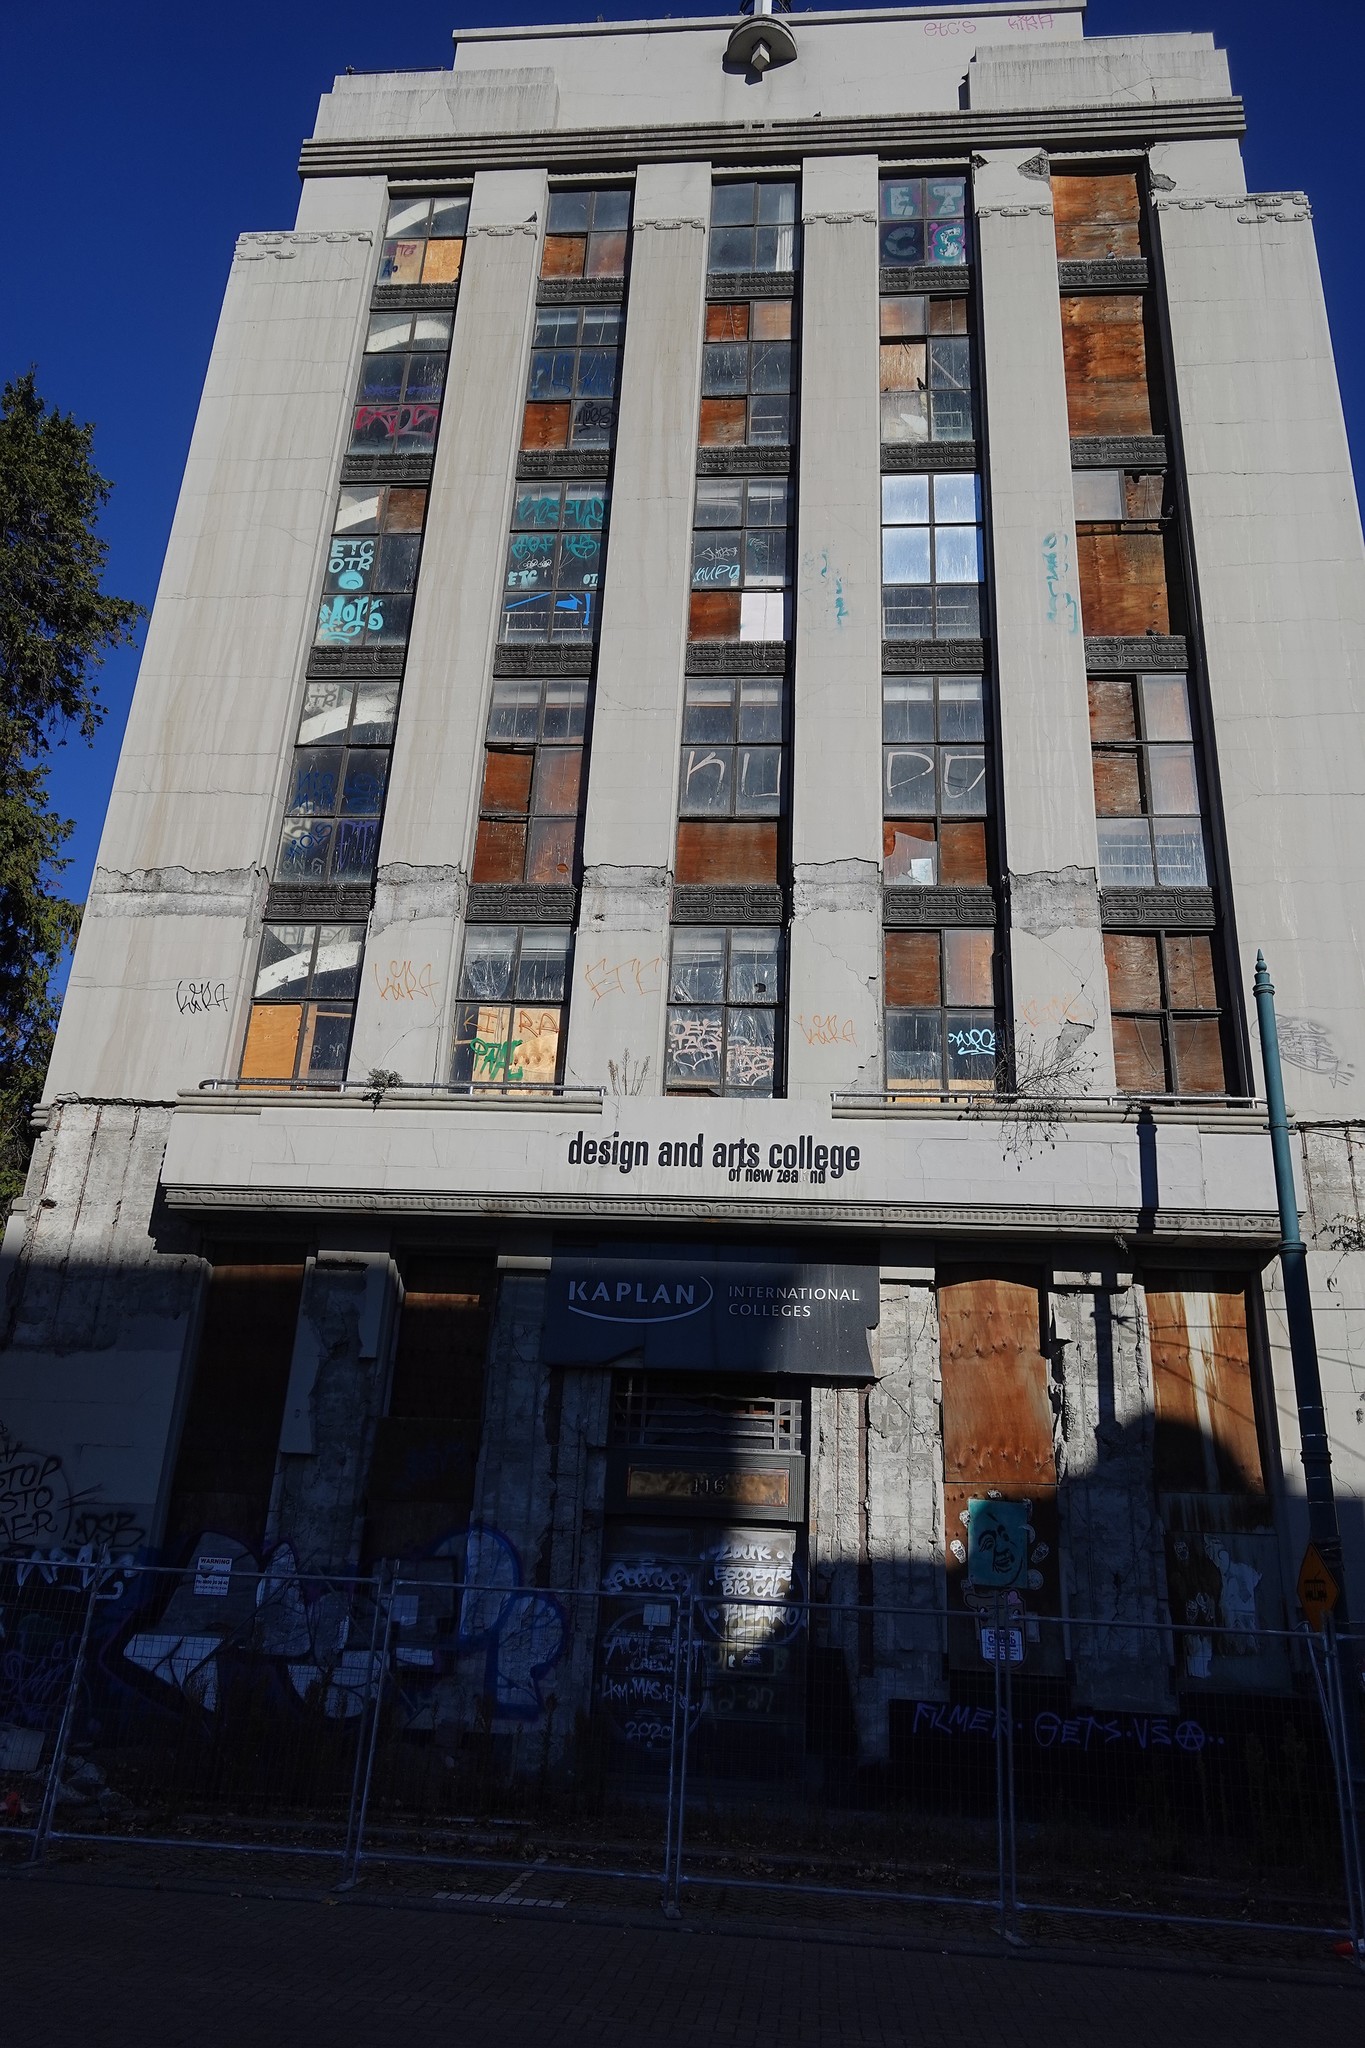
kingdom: Animalia
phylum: Chordata
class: Aves
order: Columbiformes
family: Columbidae
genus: Columba
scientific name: Columba livia
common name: Rock pigeon
